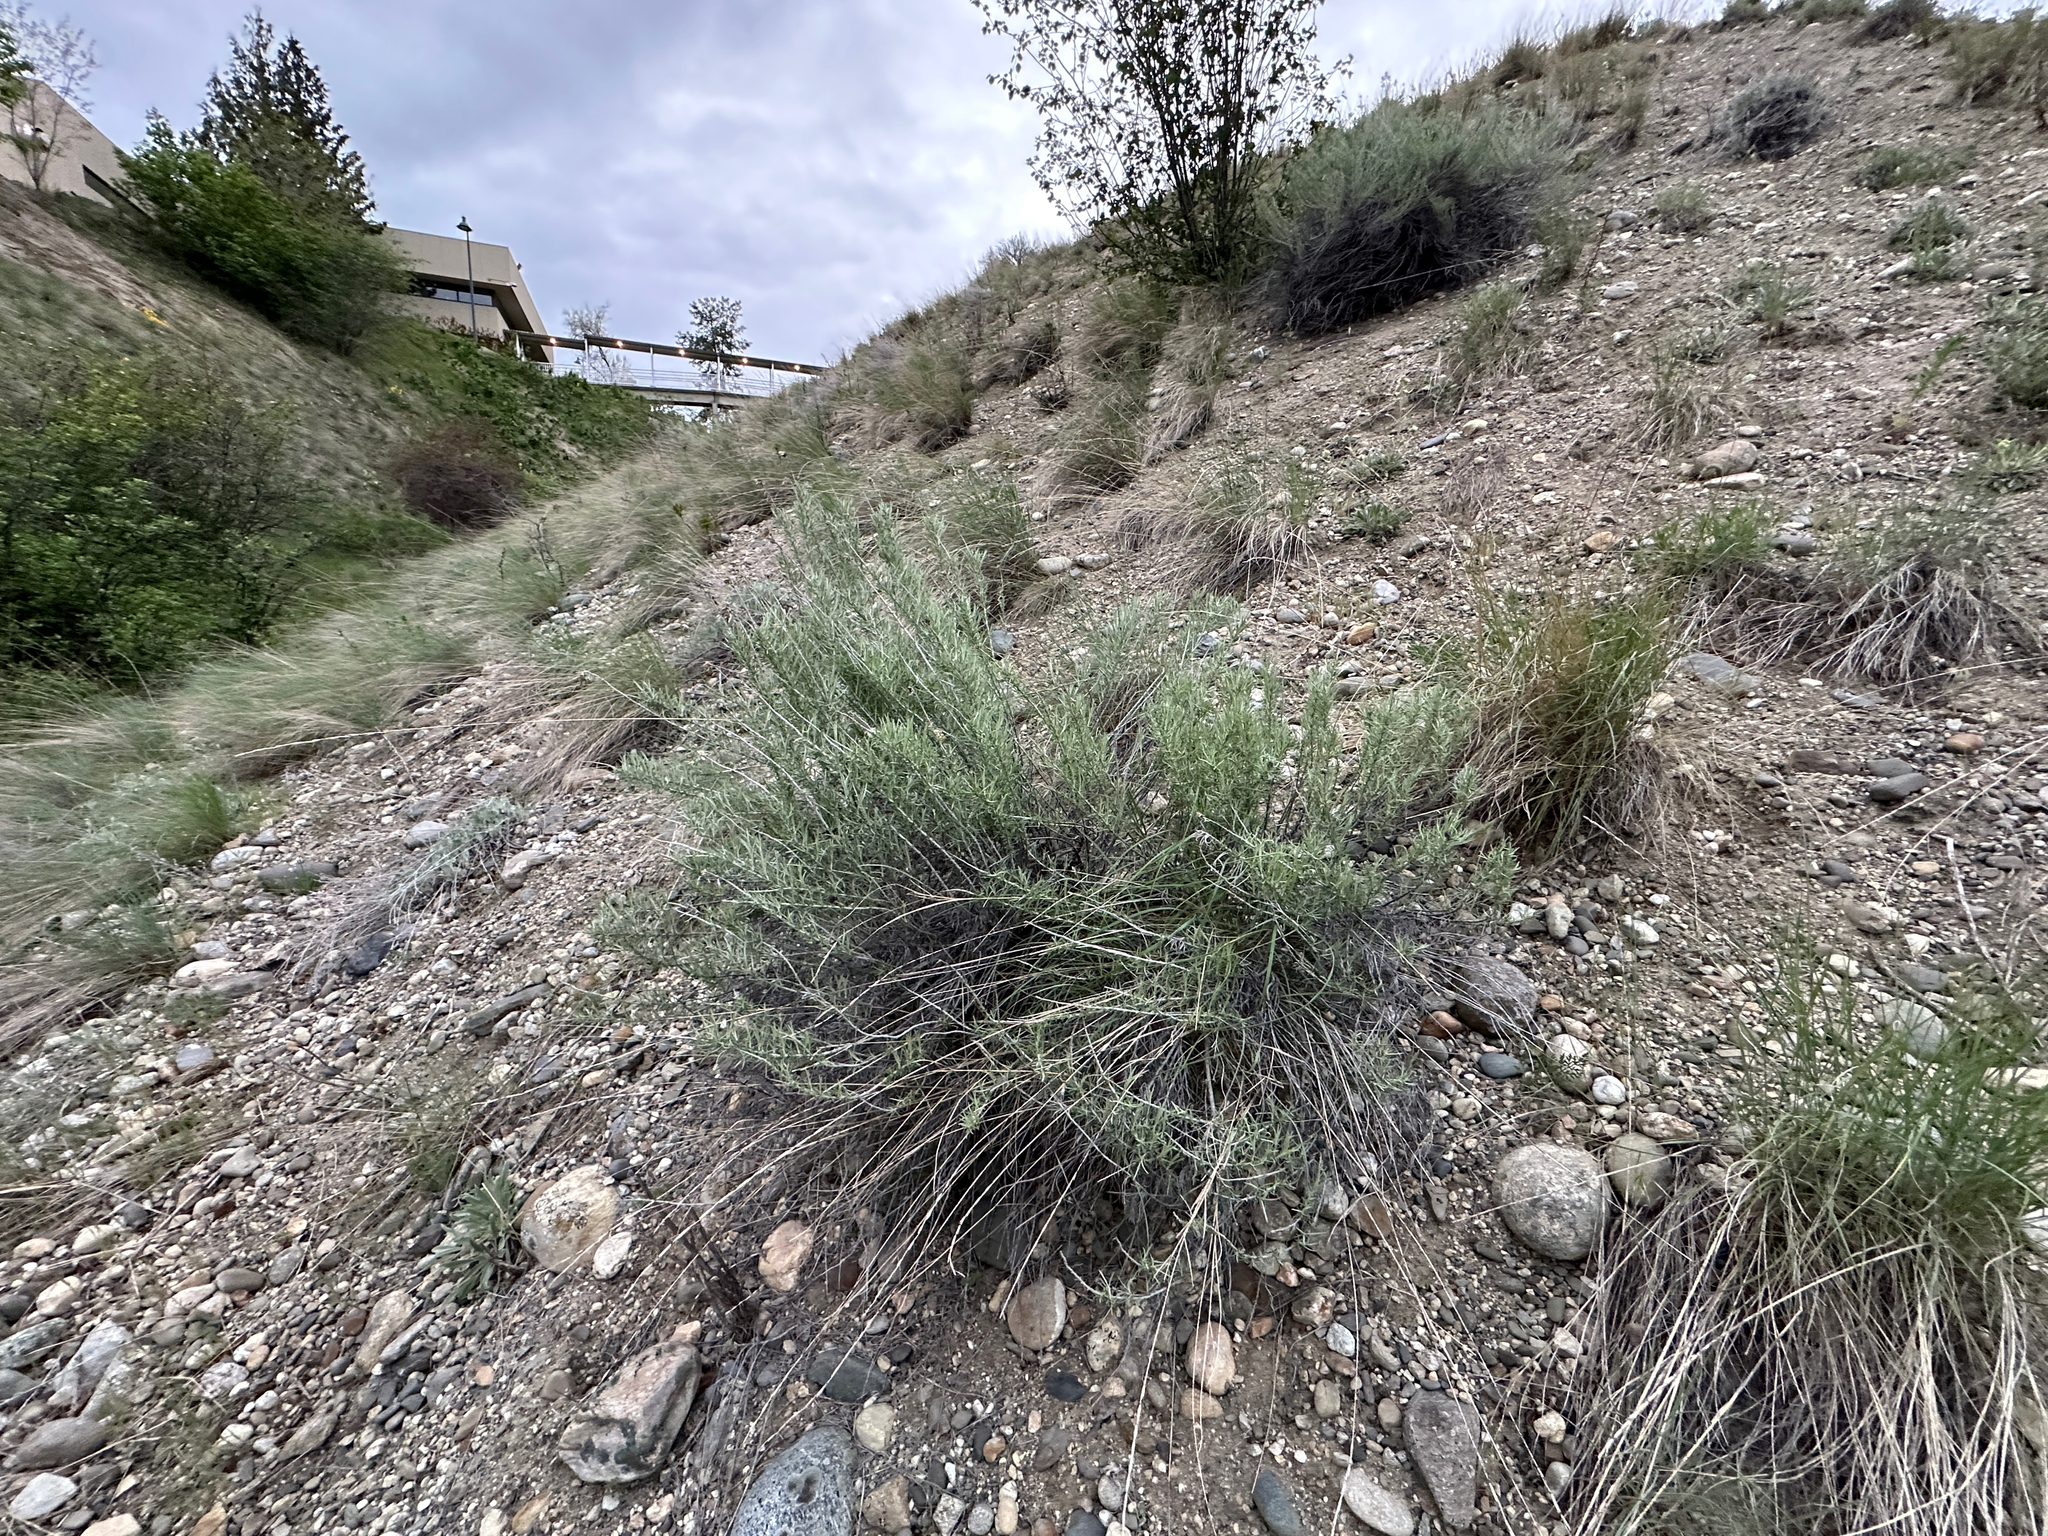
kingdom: Plantae
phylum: Tracheophyta
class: Magnoliopsida
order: Asterales
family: Asteraceae
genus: Ericameria
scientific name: Ericameria nauseosa
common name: Rubber rabbitbrush
